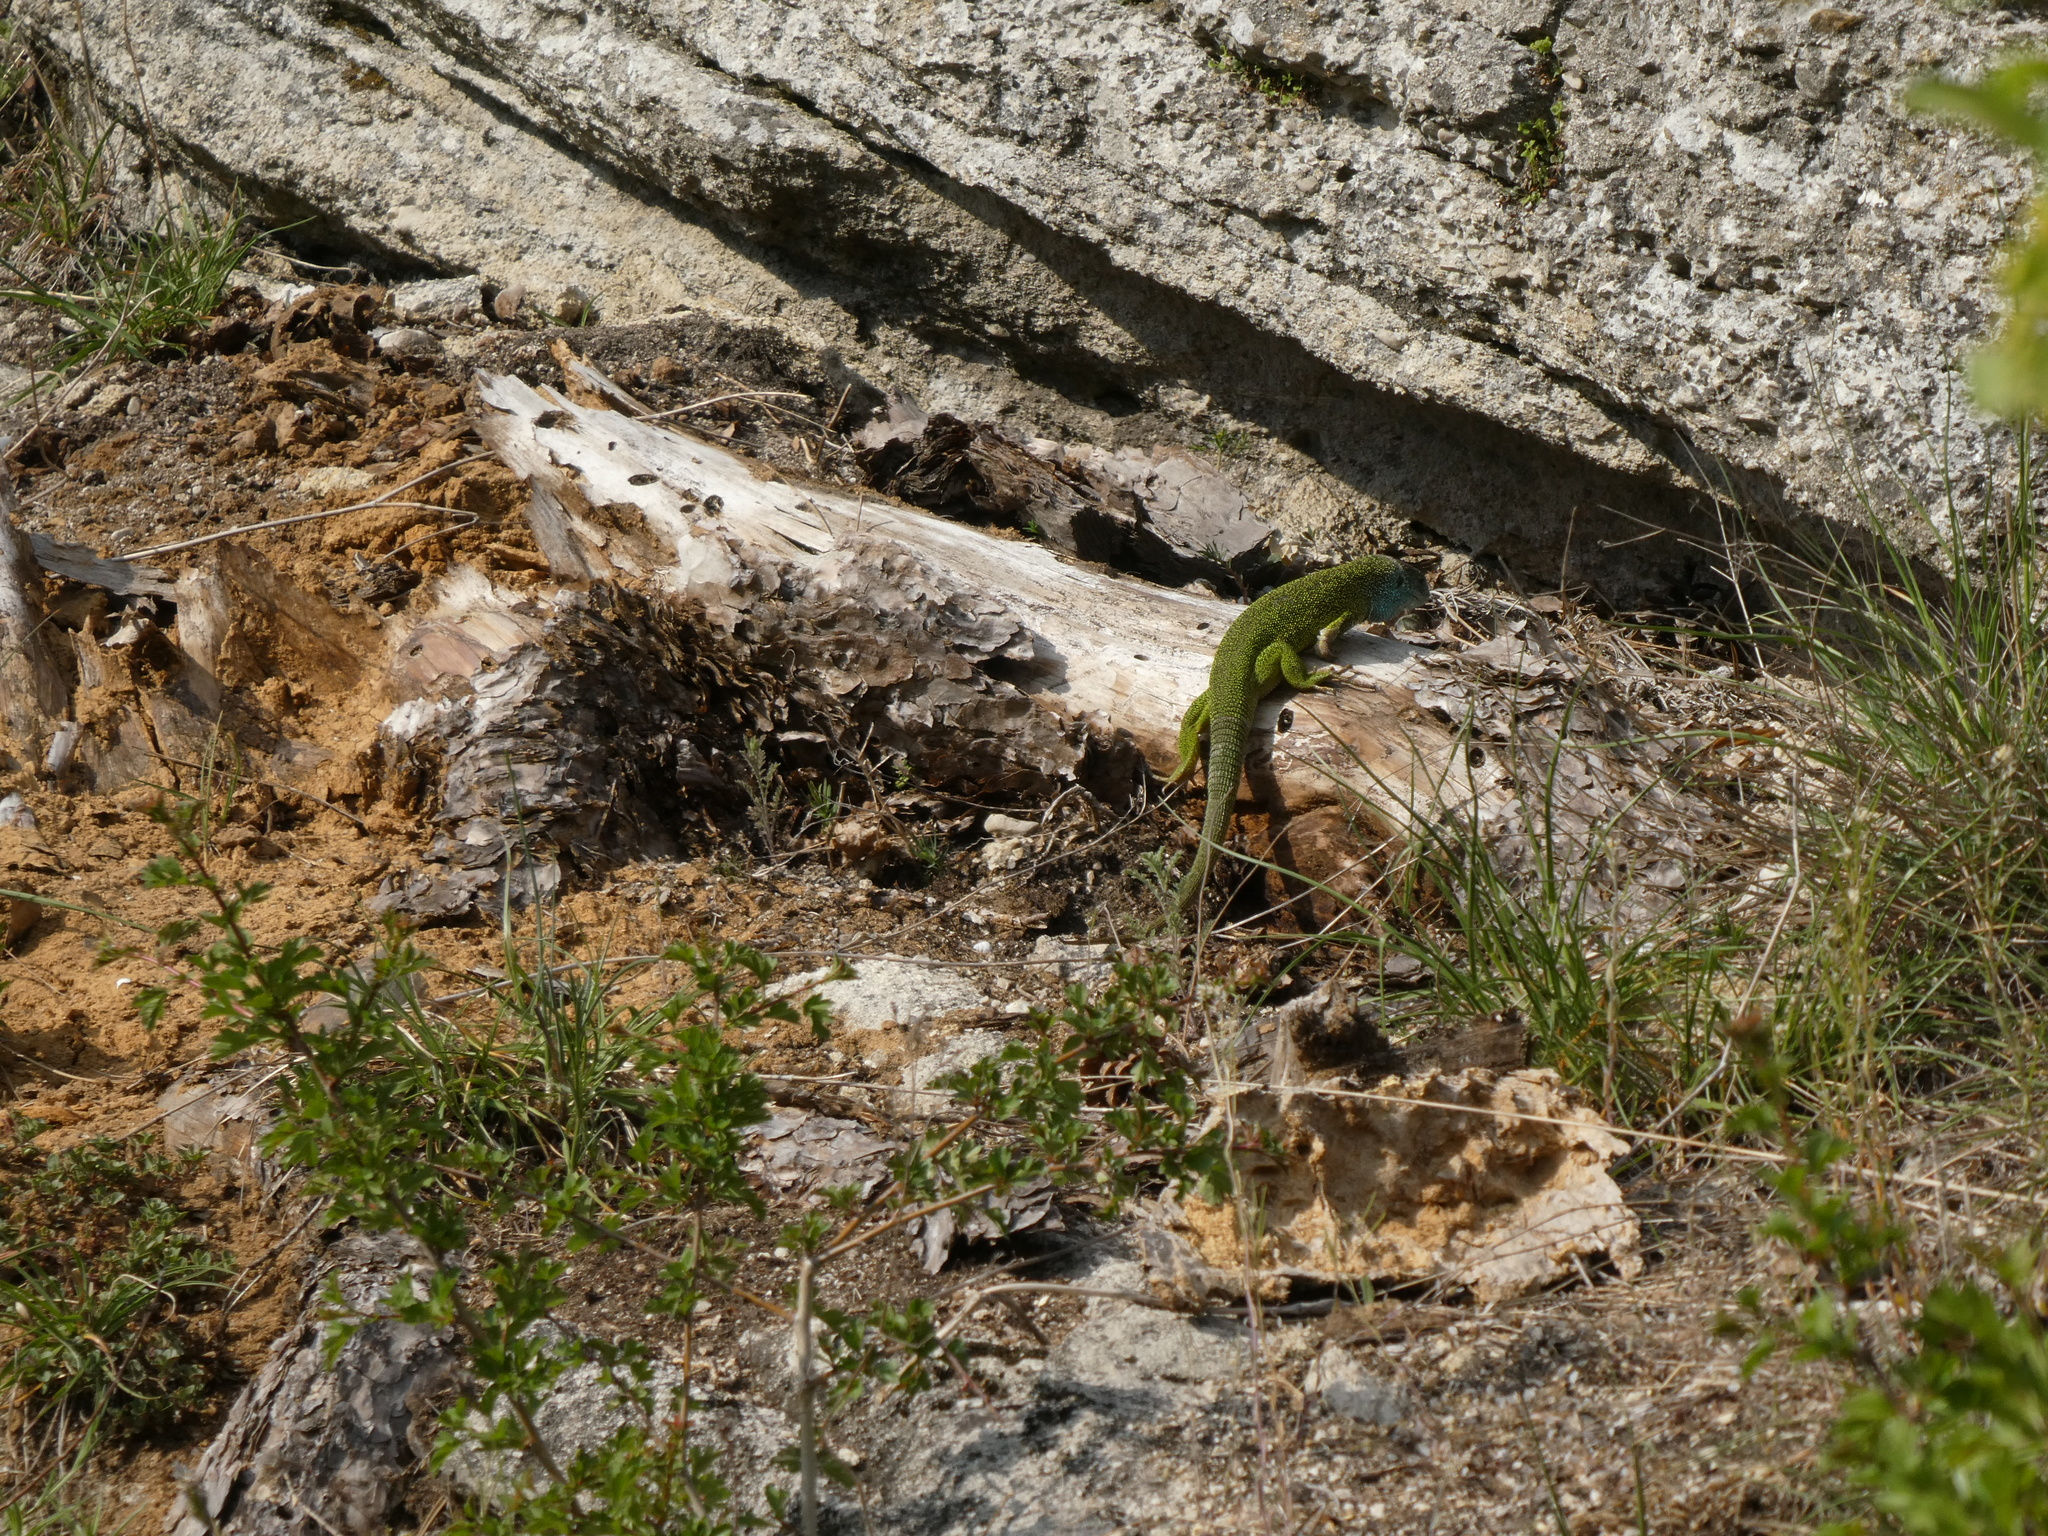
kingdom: Animalia
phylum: Chordata
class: Squamata
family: Lacertidae
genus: Lacerta
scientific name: Lacerta viridis
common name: European green lizard
